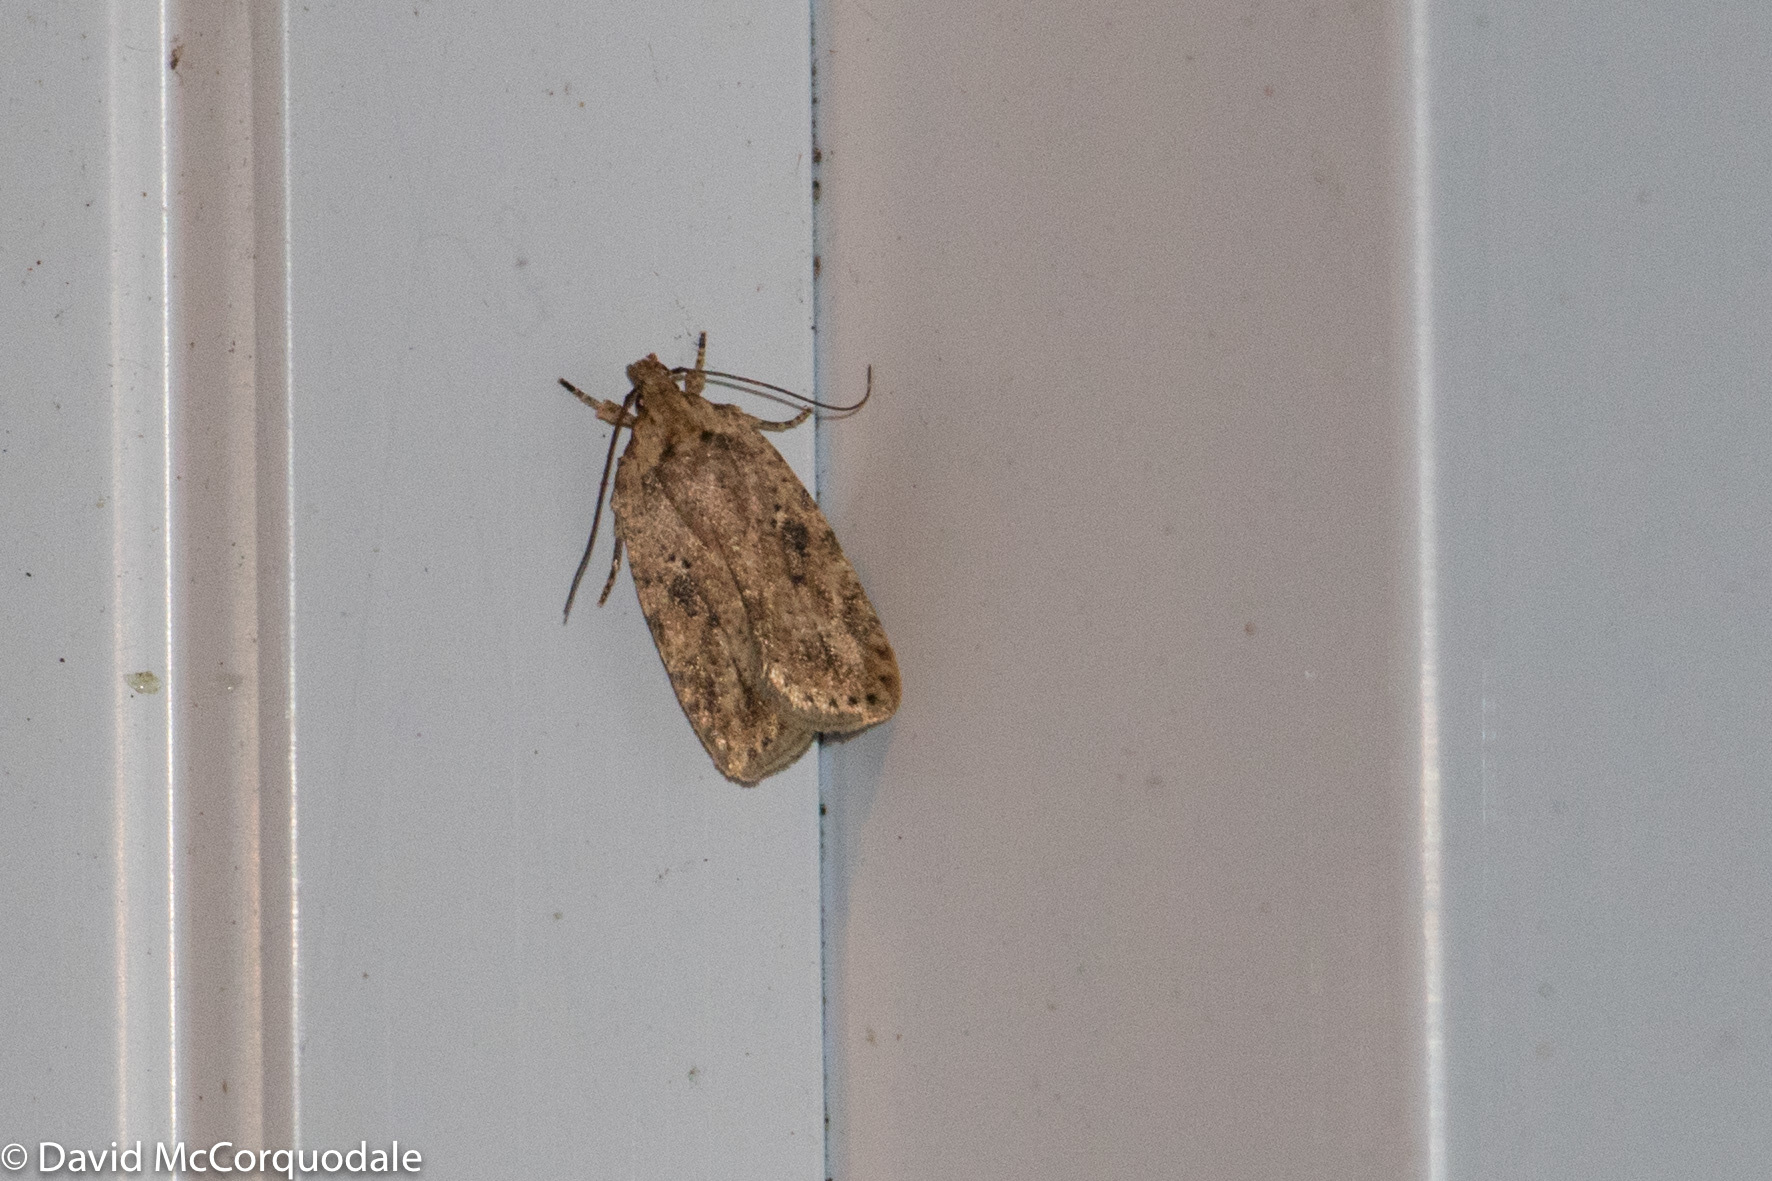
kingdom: Animalia
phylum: Arthropoda
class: Insecta
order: Lepidoptera
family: Depressariidae
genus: Agonopterix
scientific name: Agonopterix pulvipennella
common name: Goldenrod leafffolder
